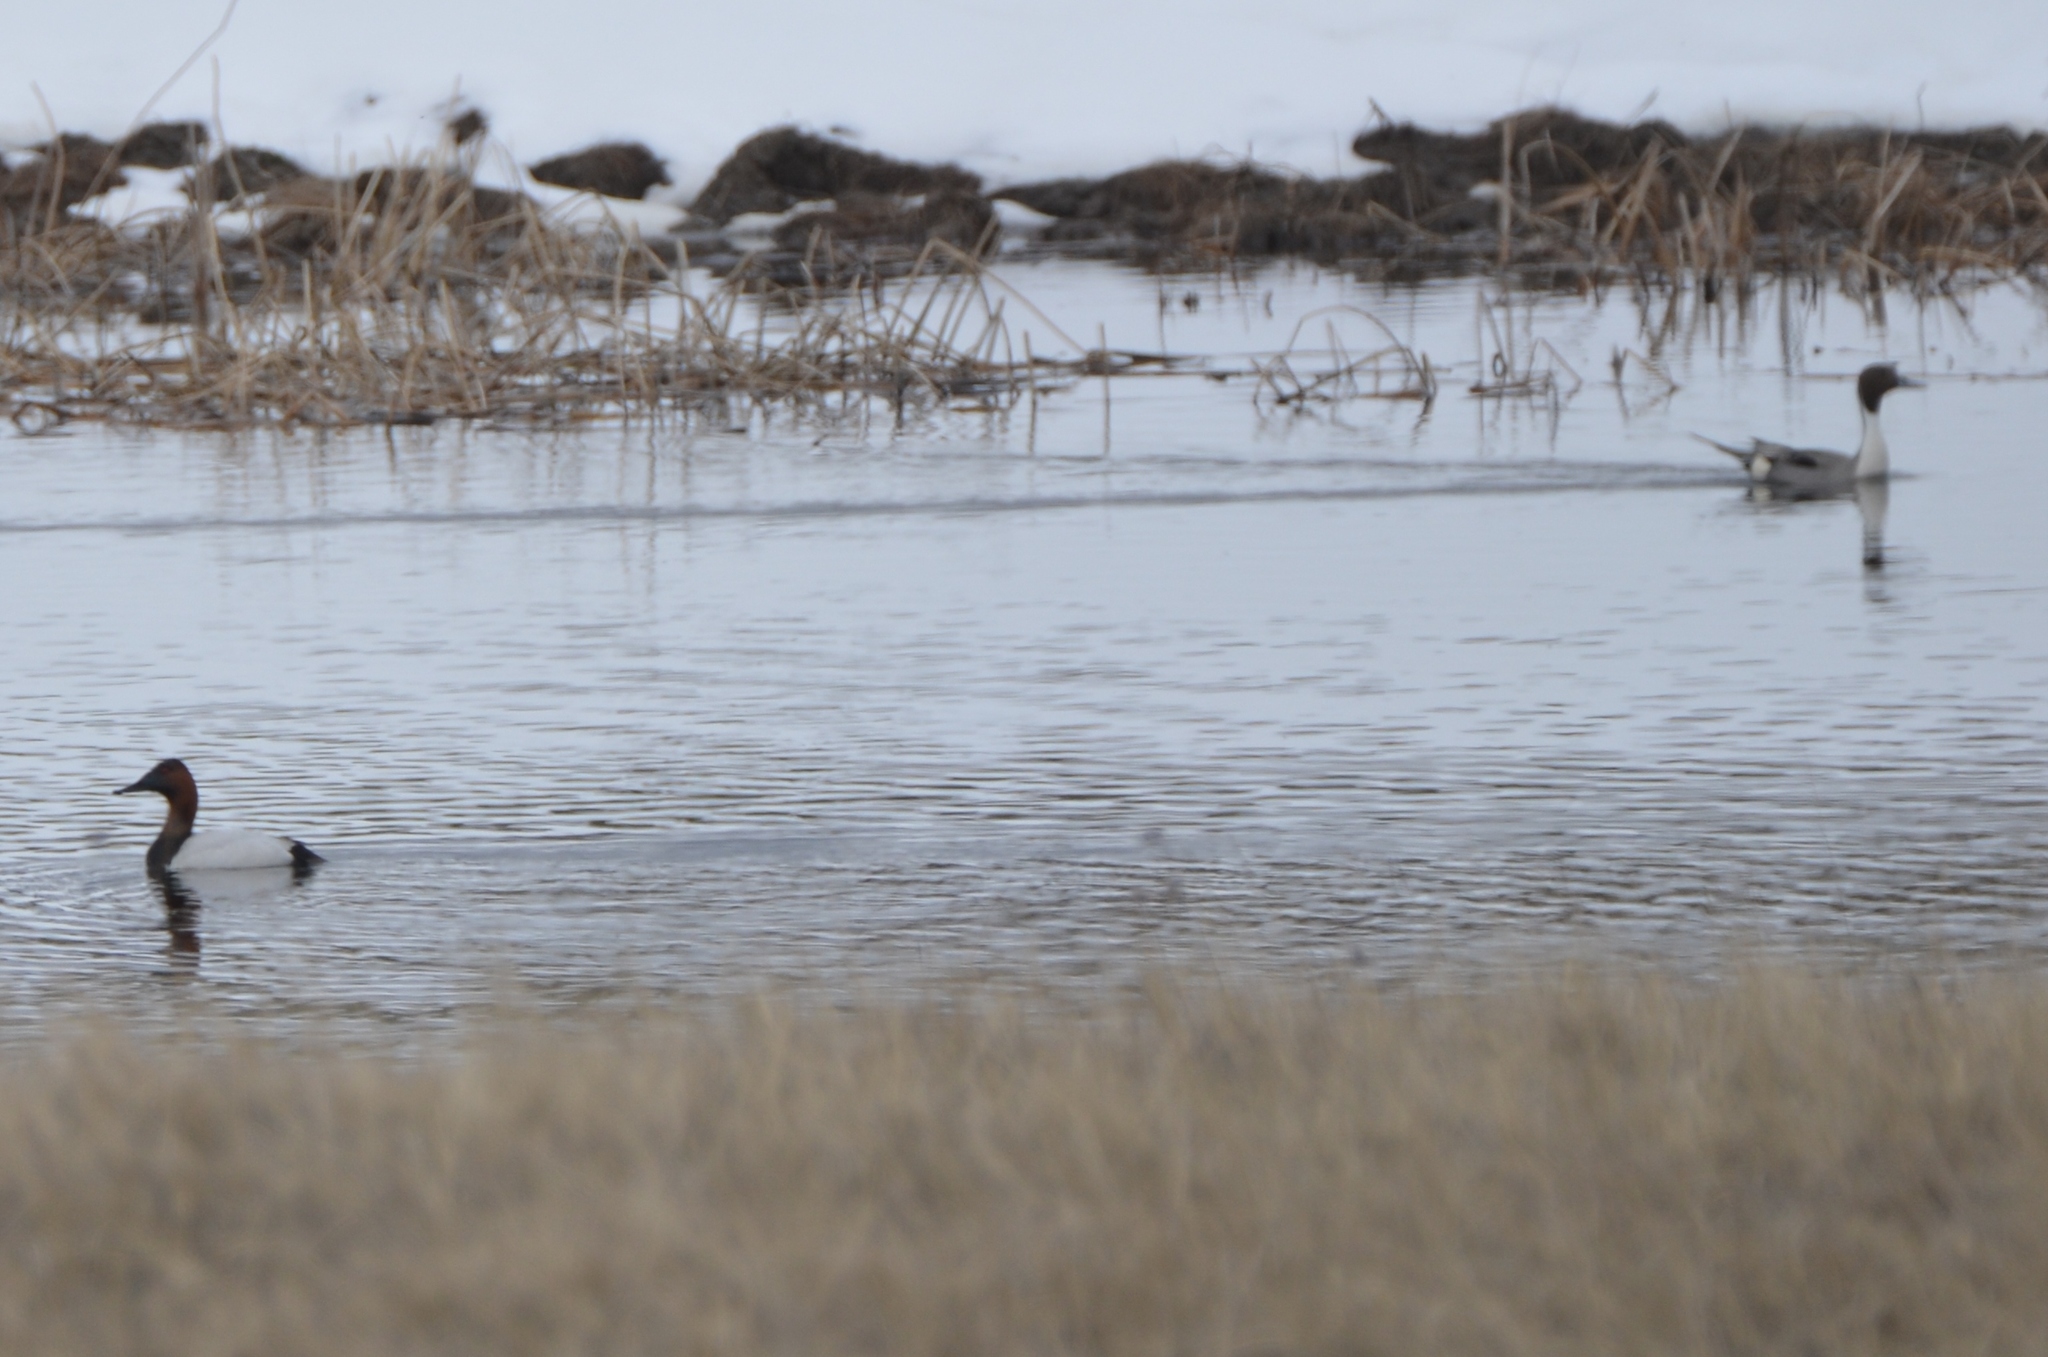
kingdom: Animalia
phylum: Chordata
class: Aves
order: Anseriformes
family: Anatidae
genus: Aythya
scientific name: Aythya valisineria
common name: Canvasback
